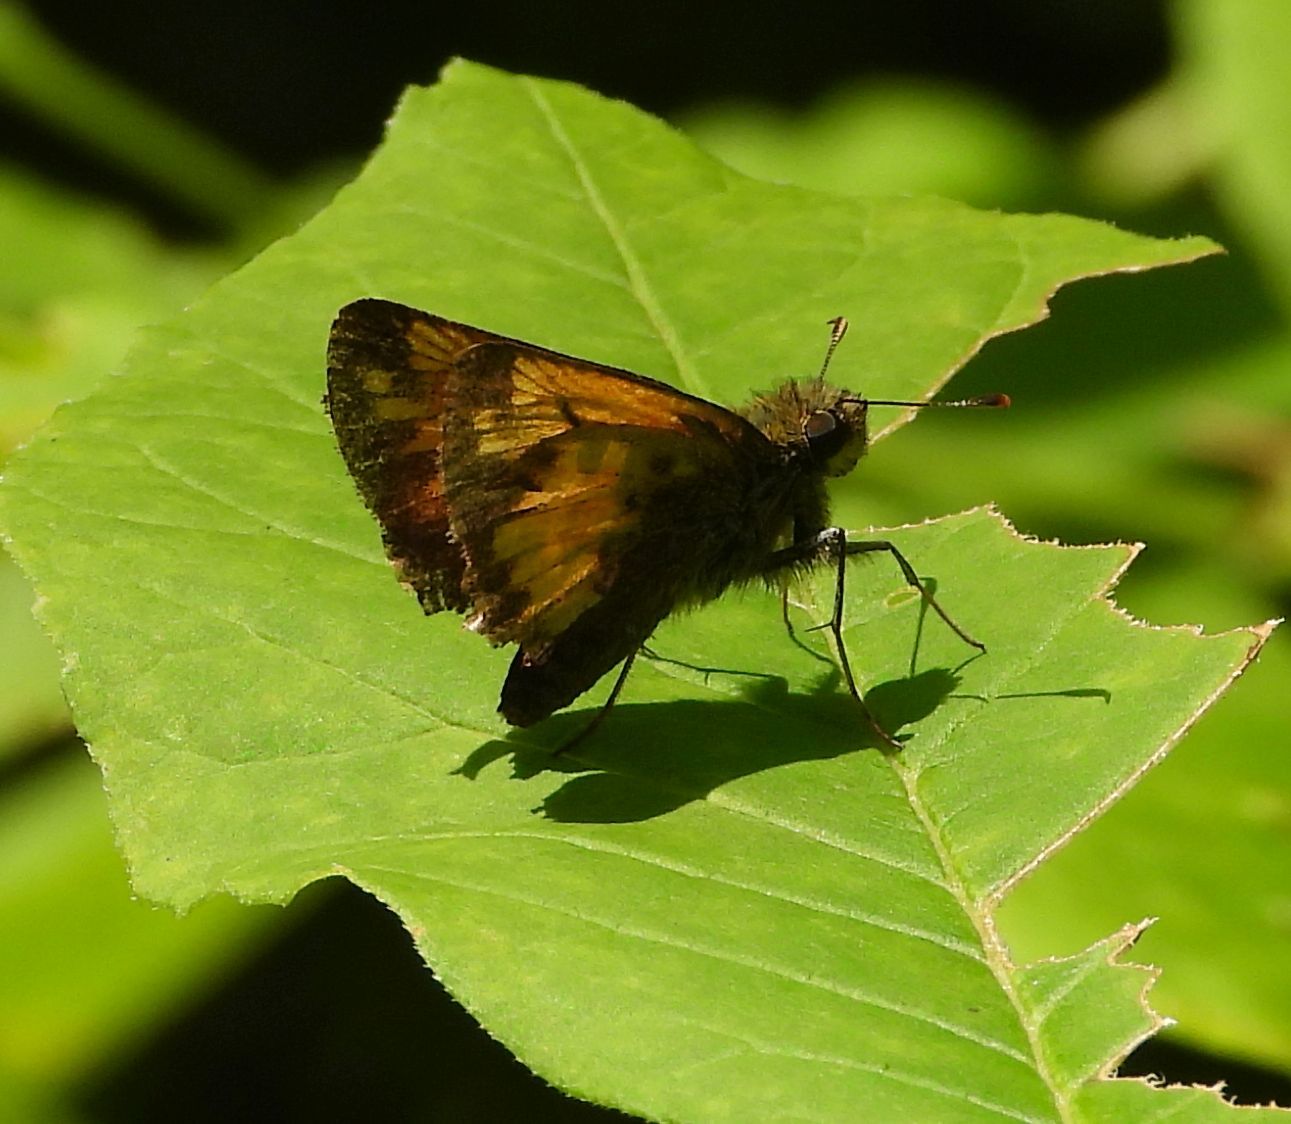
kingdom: Animalia
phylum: Arthropoda
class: Insecta
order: Lepidoptera
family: Hesperiidae
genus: Lon
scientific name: Lon hobomok
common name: Hobomok skipper
